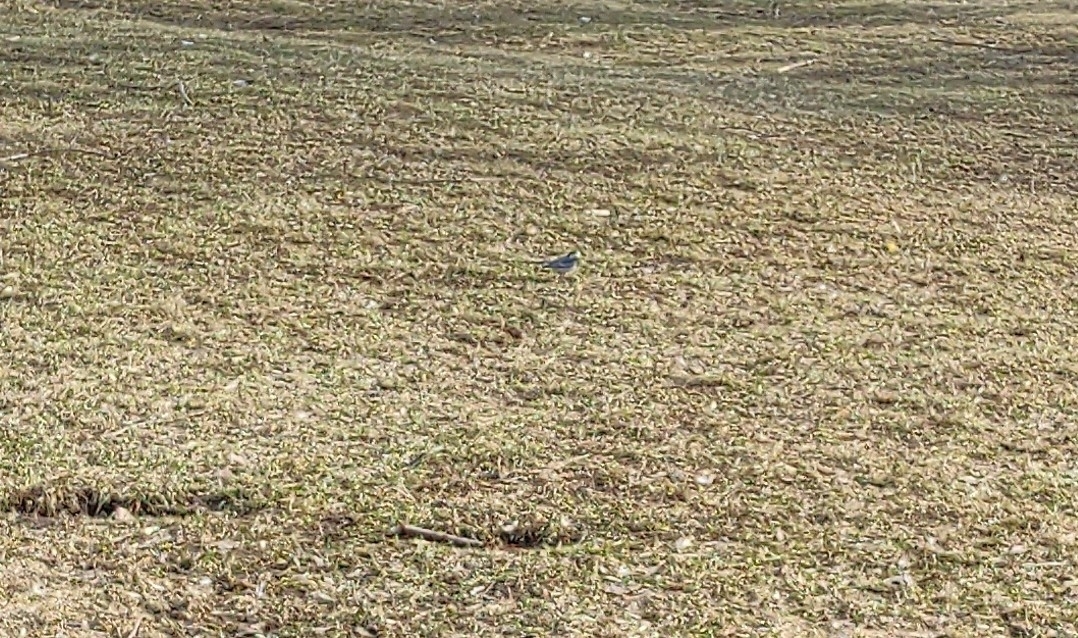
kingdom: Animalia
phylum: Chordata
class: Aves
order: Passeriformes
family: Motacillidae
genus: Motacilla
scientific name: Motacilla alba
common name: White wagtail
